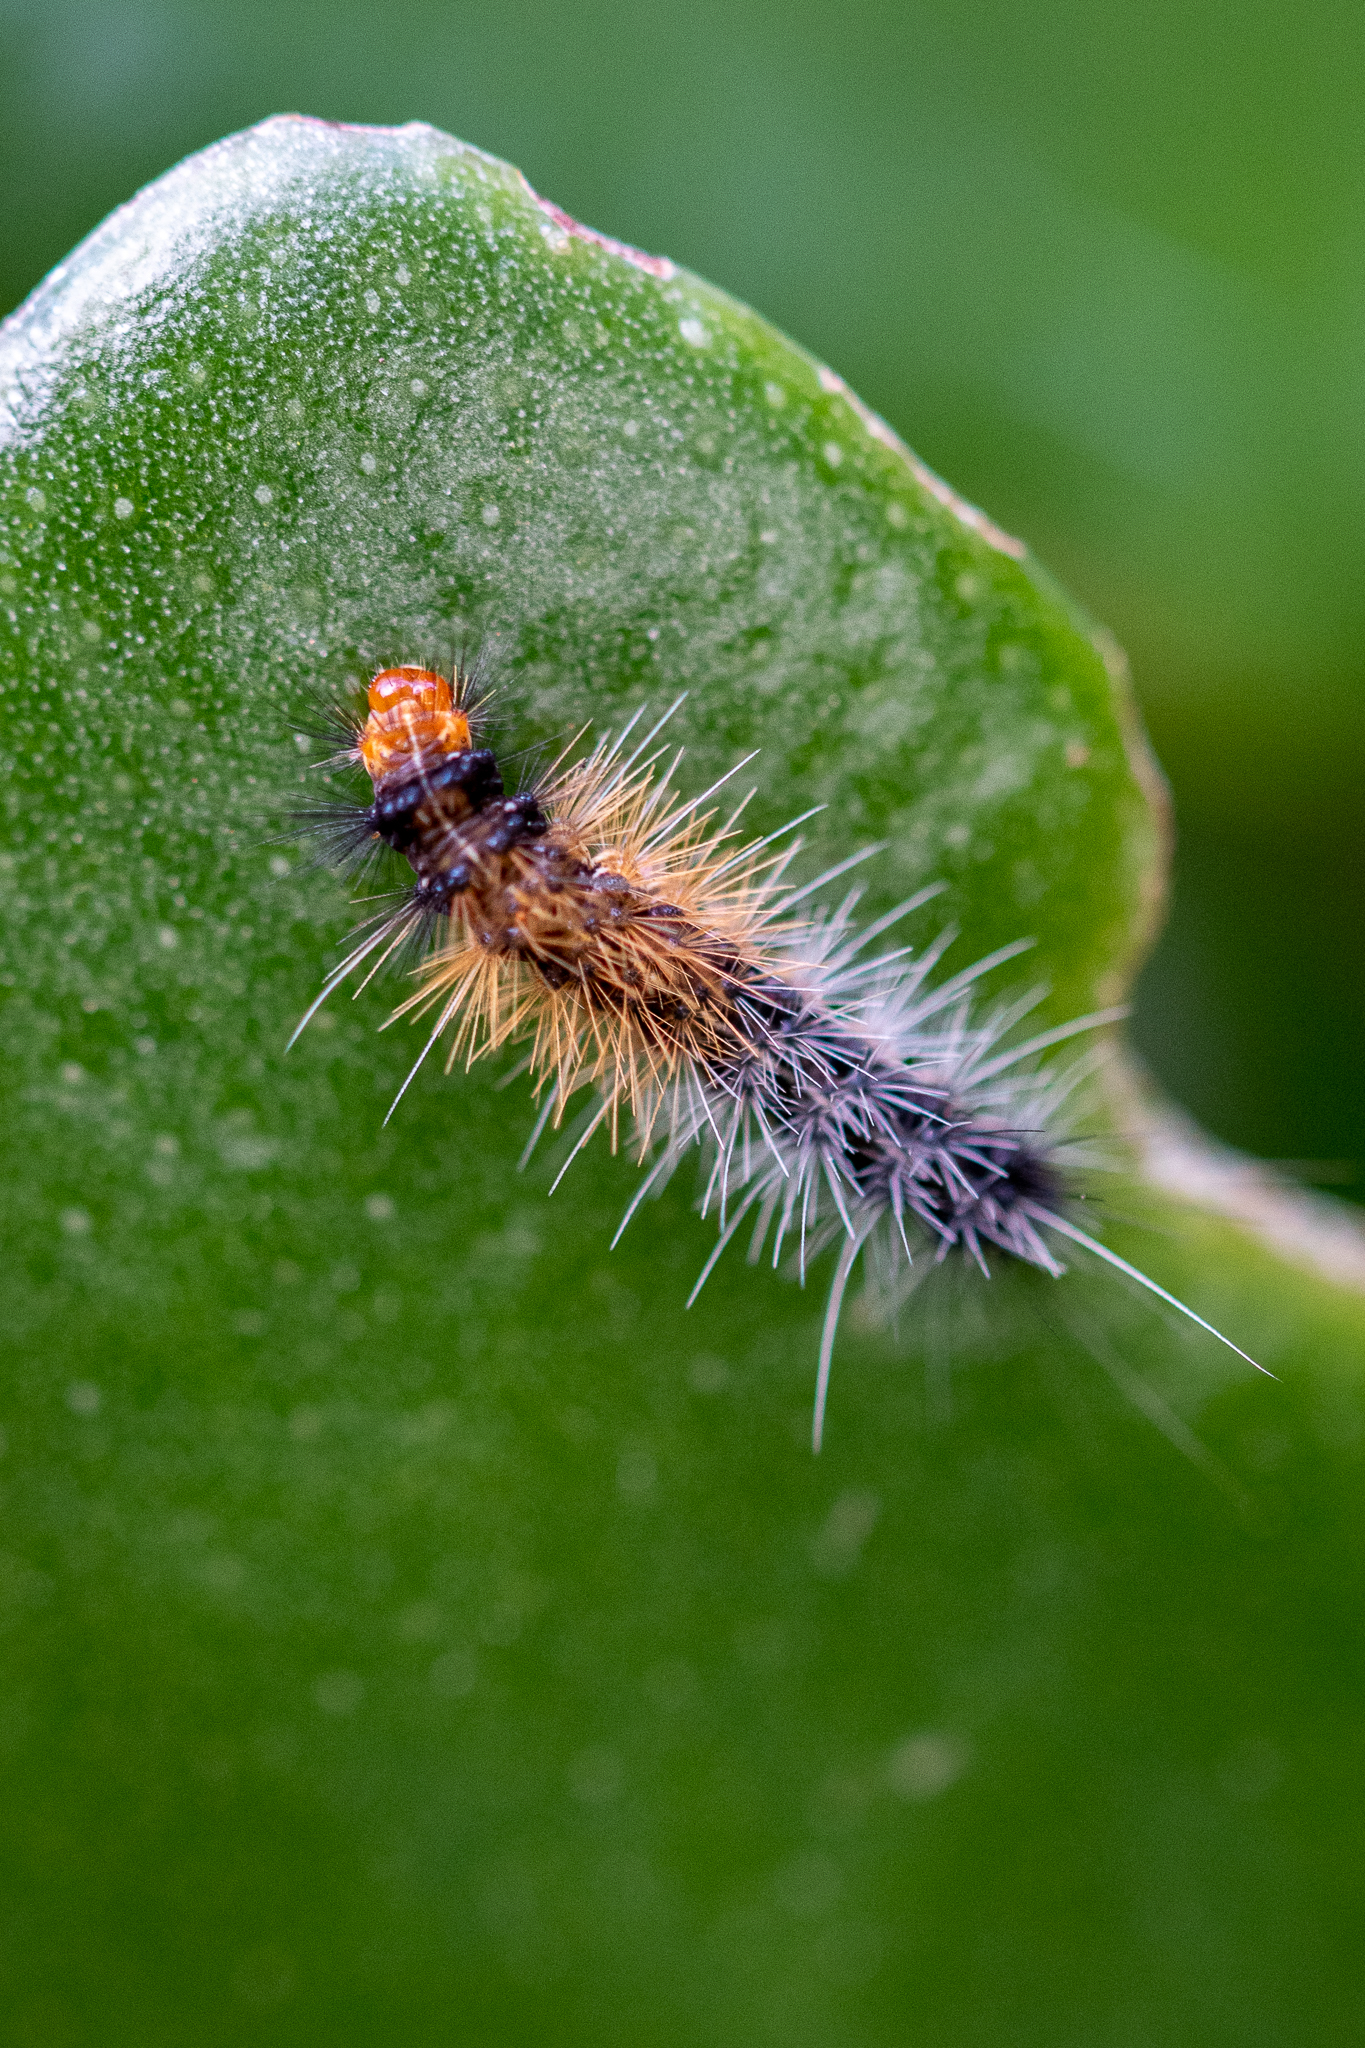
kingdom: Animalia
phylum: Arthropoda
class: Insecta
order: Lepidoptera
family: Erebidae
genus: Rhodogastria
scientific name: Rhodogastria amasis
